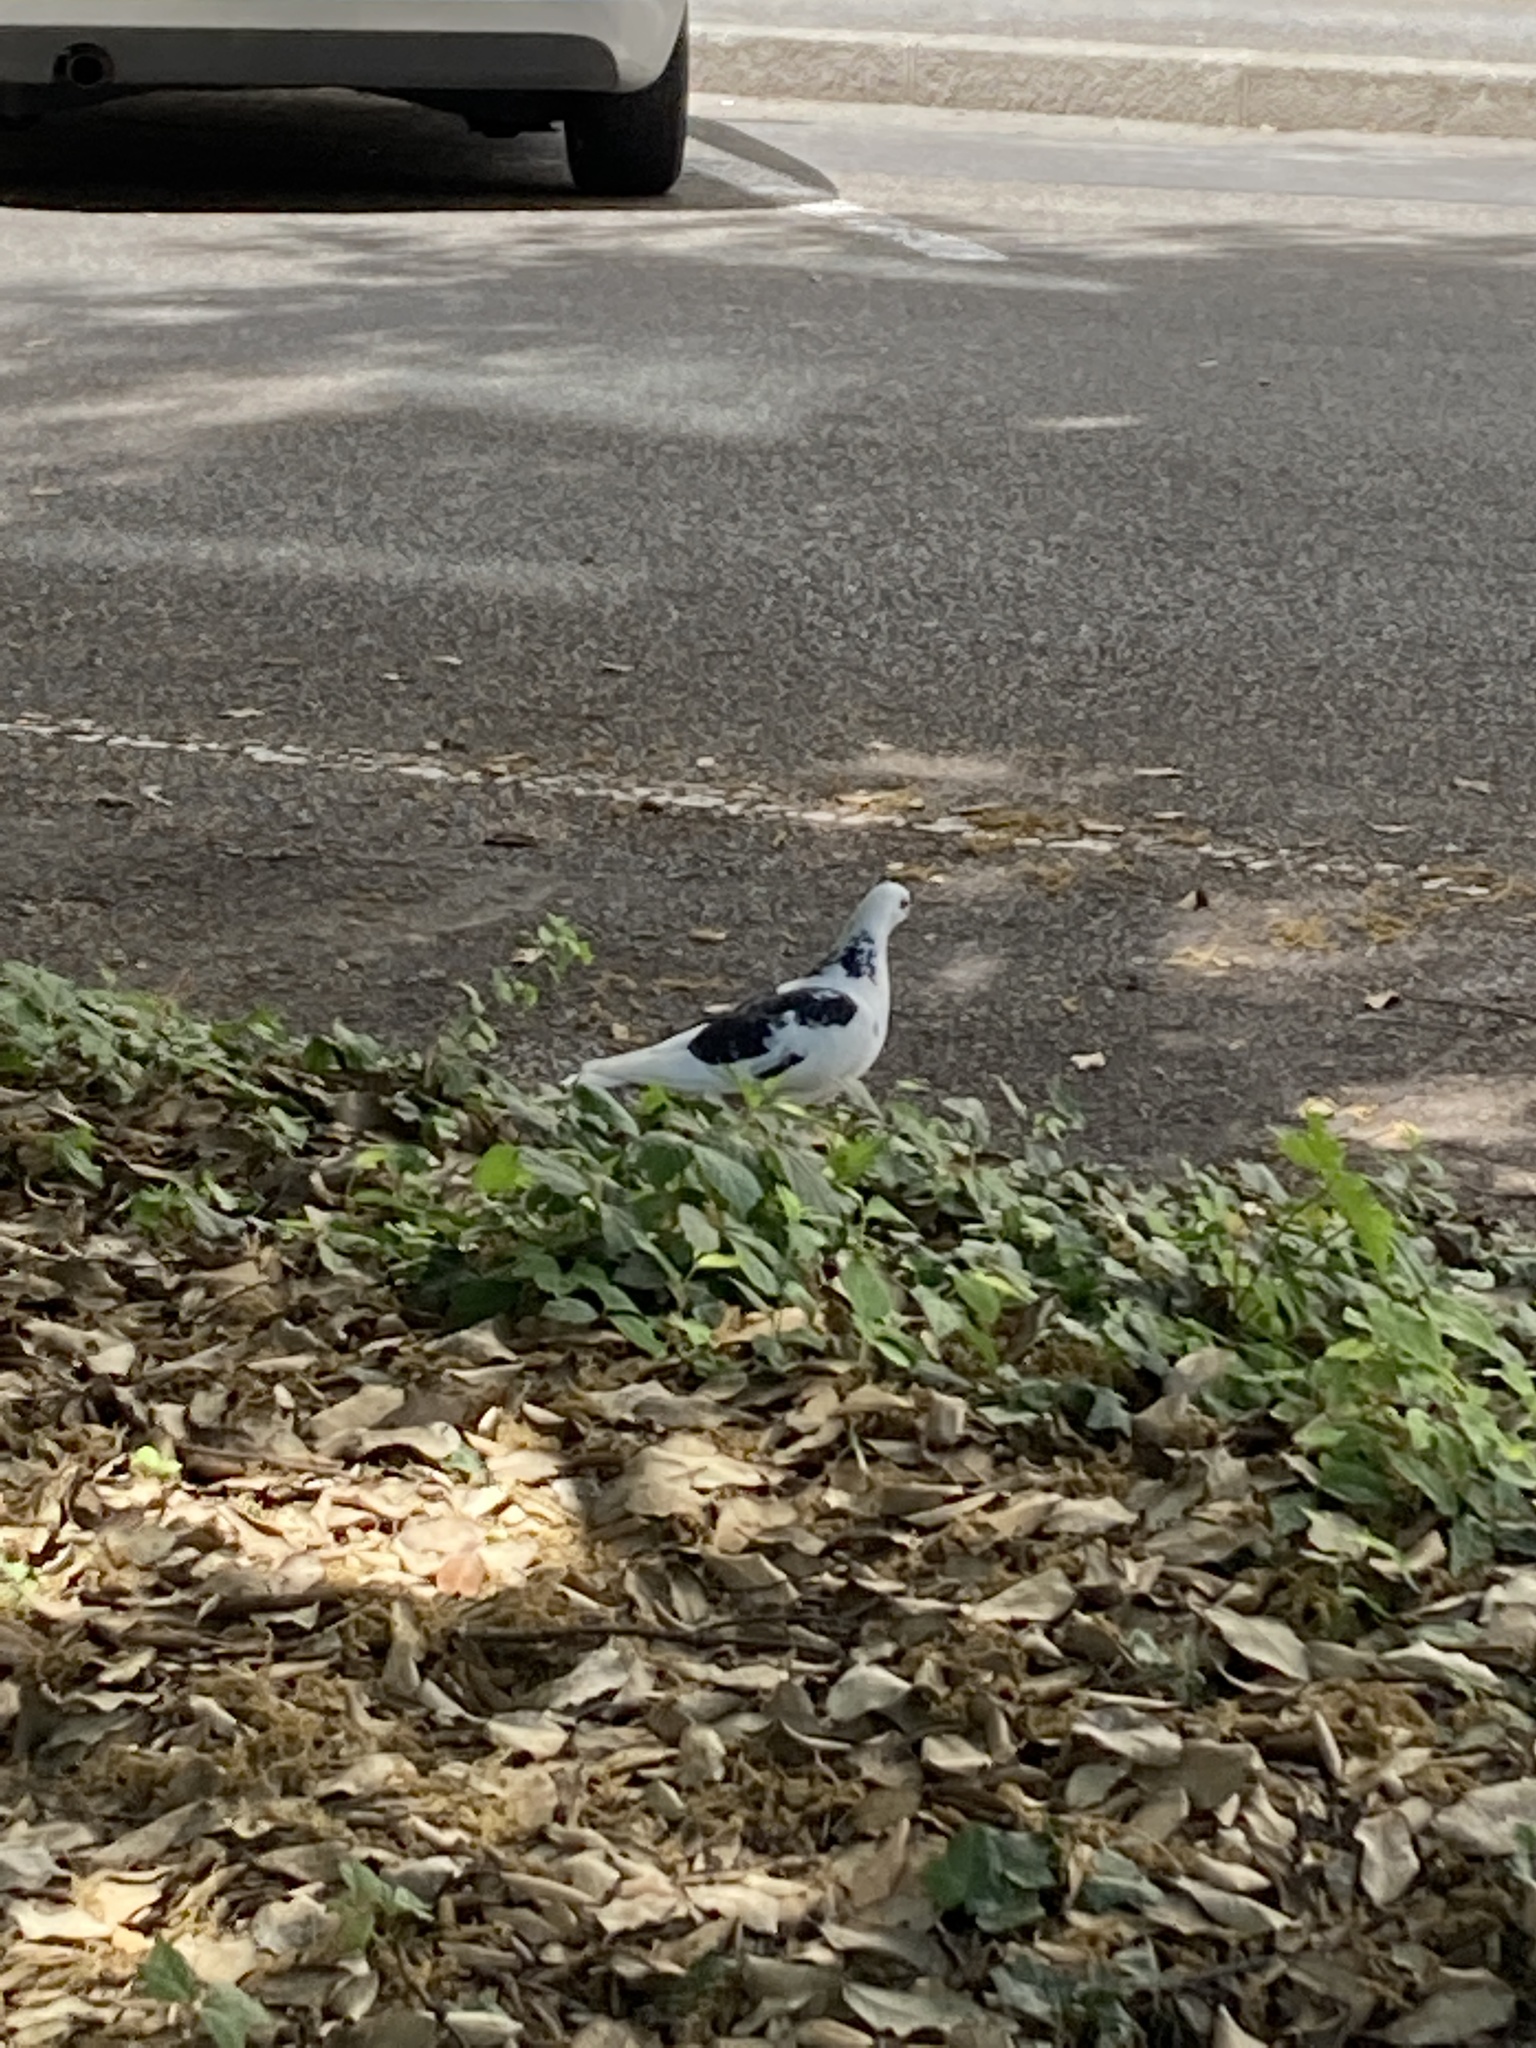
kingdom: Animalia
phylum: Chordata
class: Aves
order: Columbiformes
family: Columbidae
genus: Columba
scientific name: Columba livia
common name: Rock pigeon
